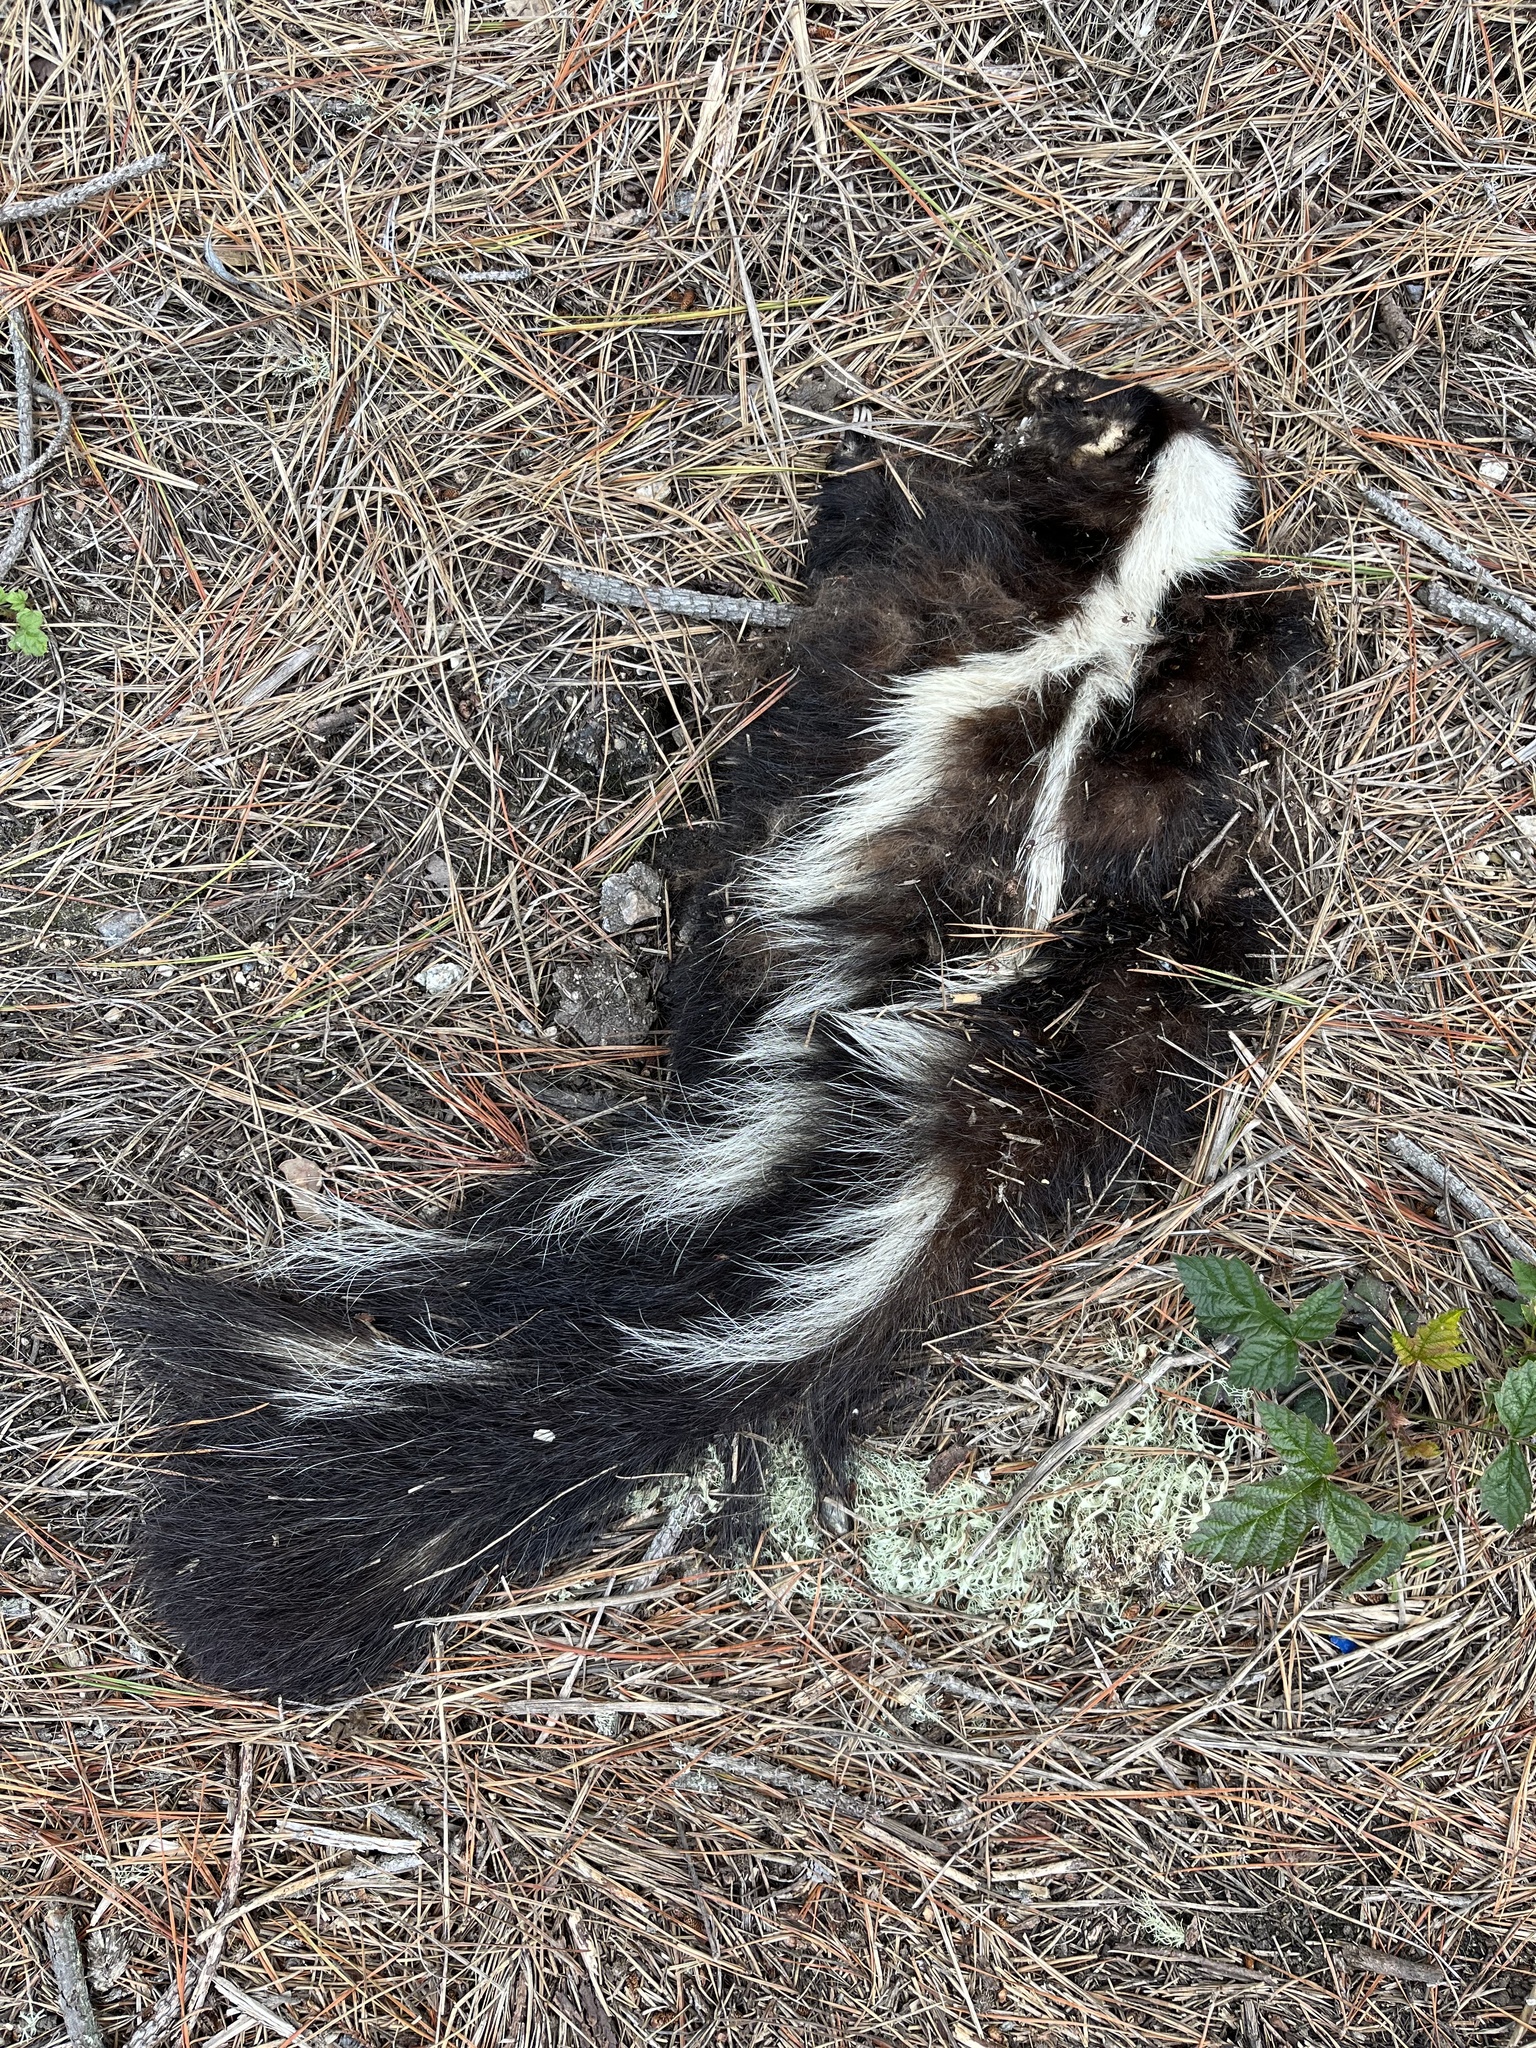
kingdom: Animalia
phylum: Chordata
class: Mammalia
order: Carnivora
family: Mephitidae
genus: Mephitis
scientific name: Mephitis mephitis
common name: Striped skunk
